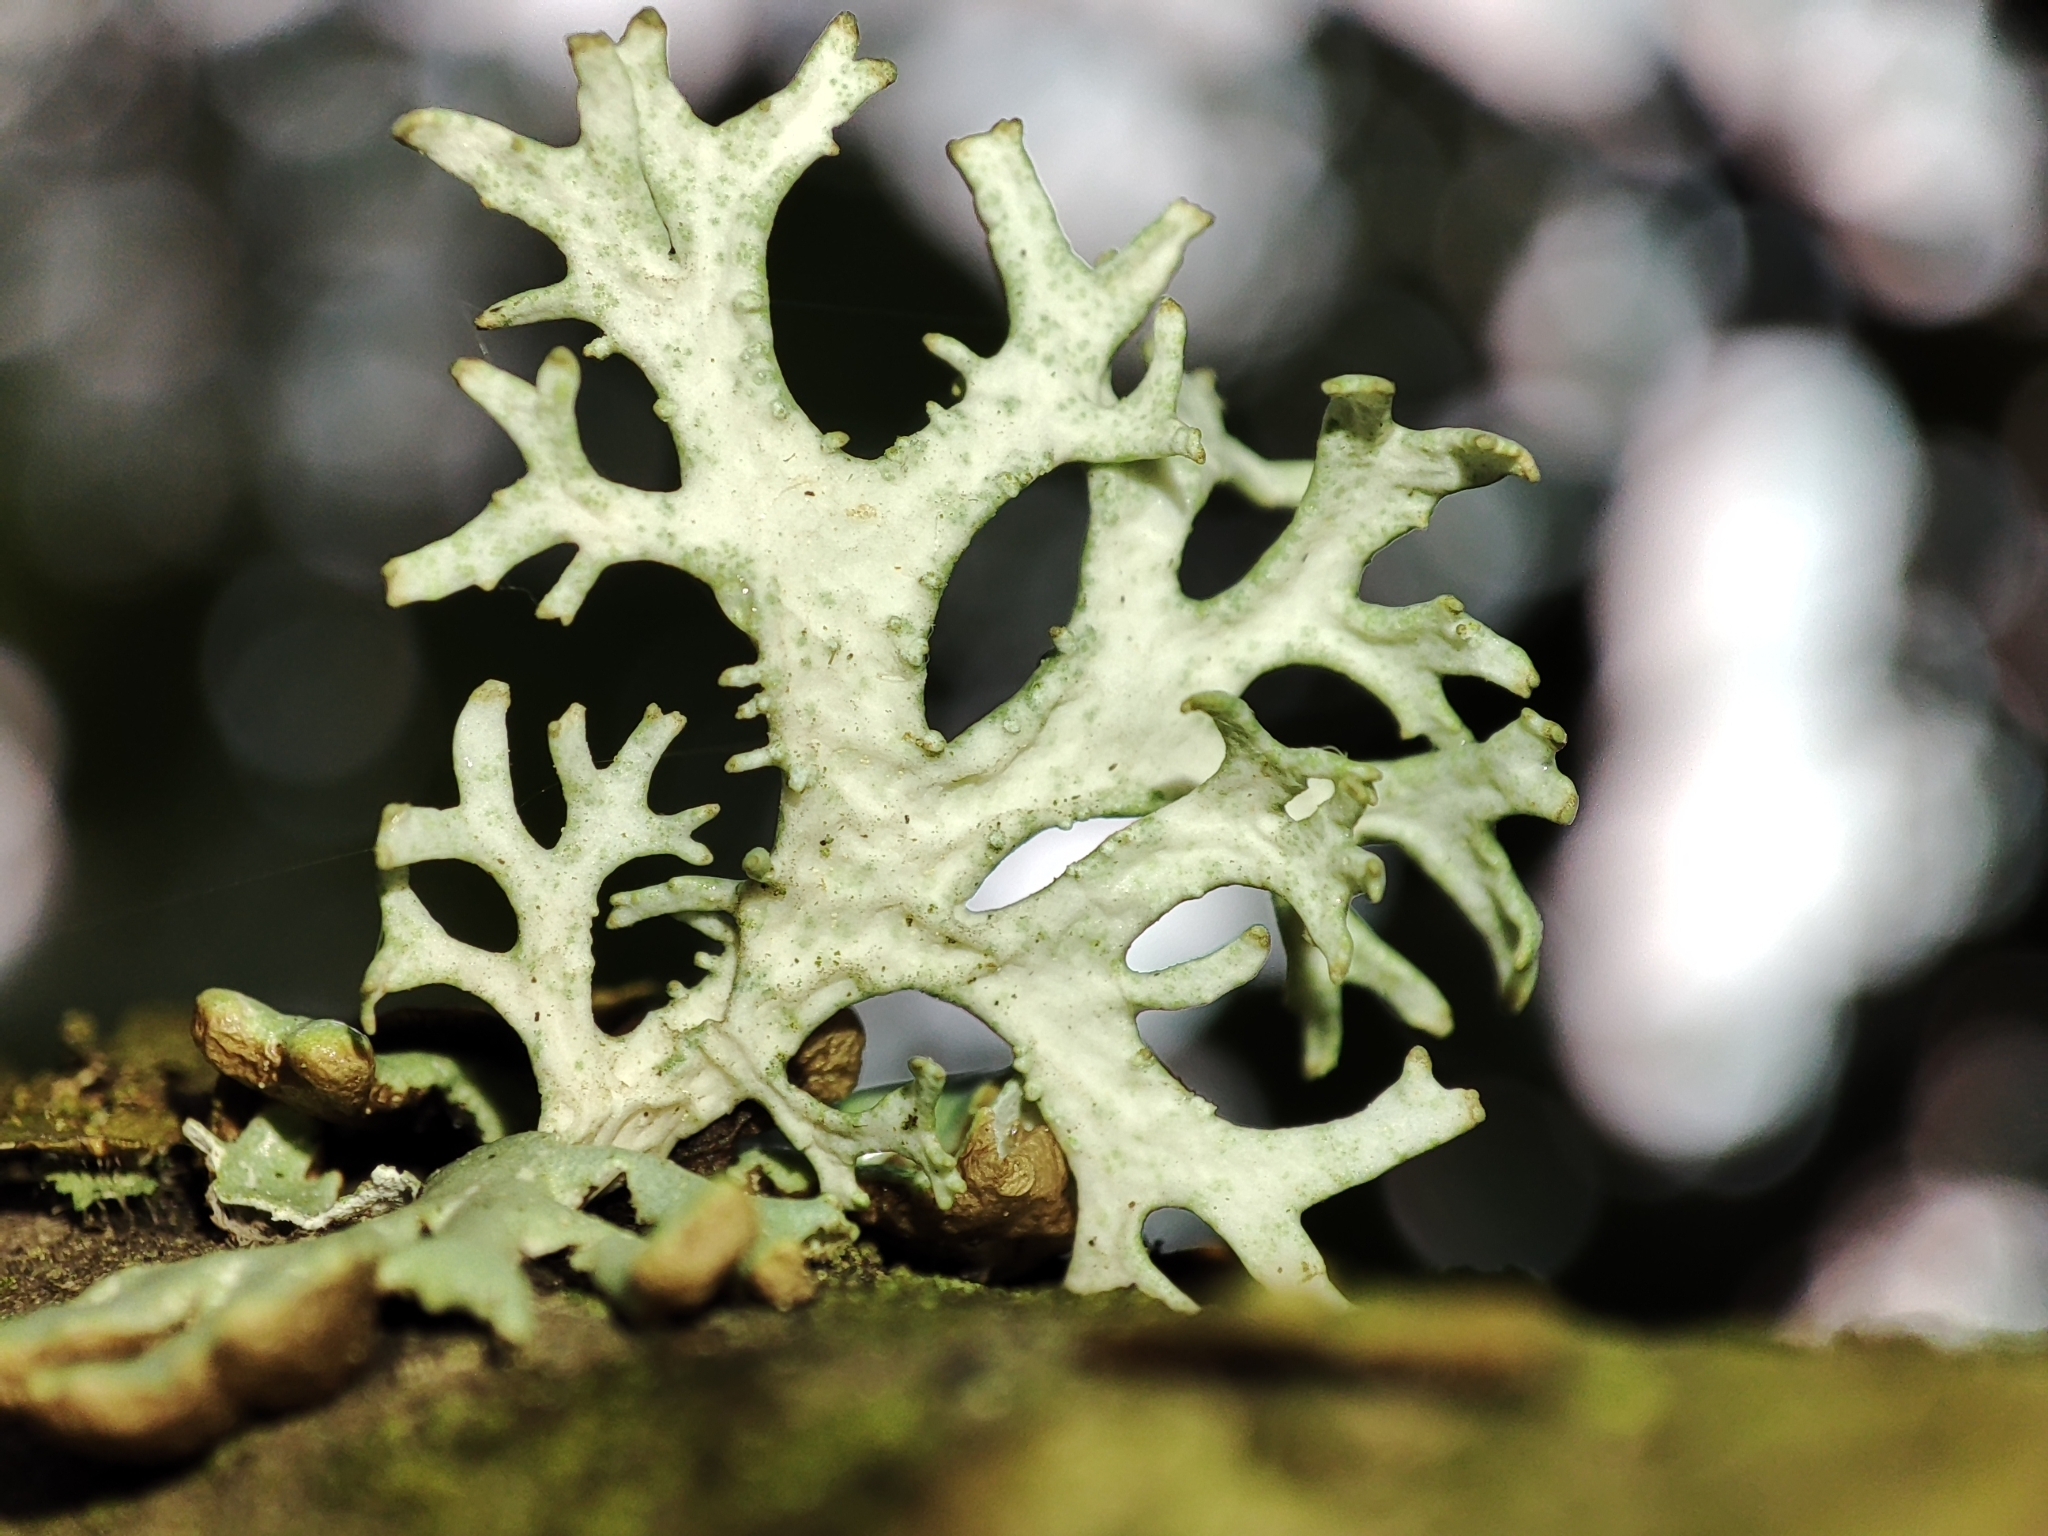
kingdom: Fungi
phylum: Ascomycota
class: Lecanoromycetes
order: Lecanorales
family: Parmeliaceae
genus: Evernia
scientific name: Evernia prunastri
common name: Oak moss
